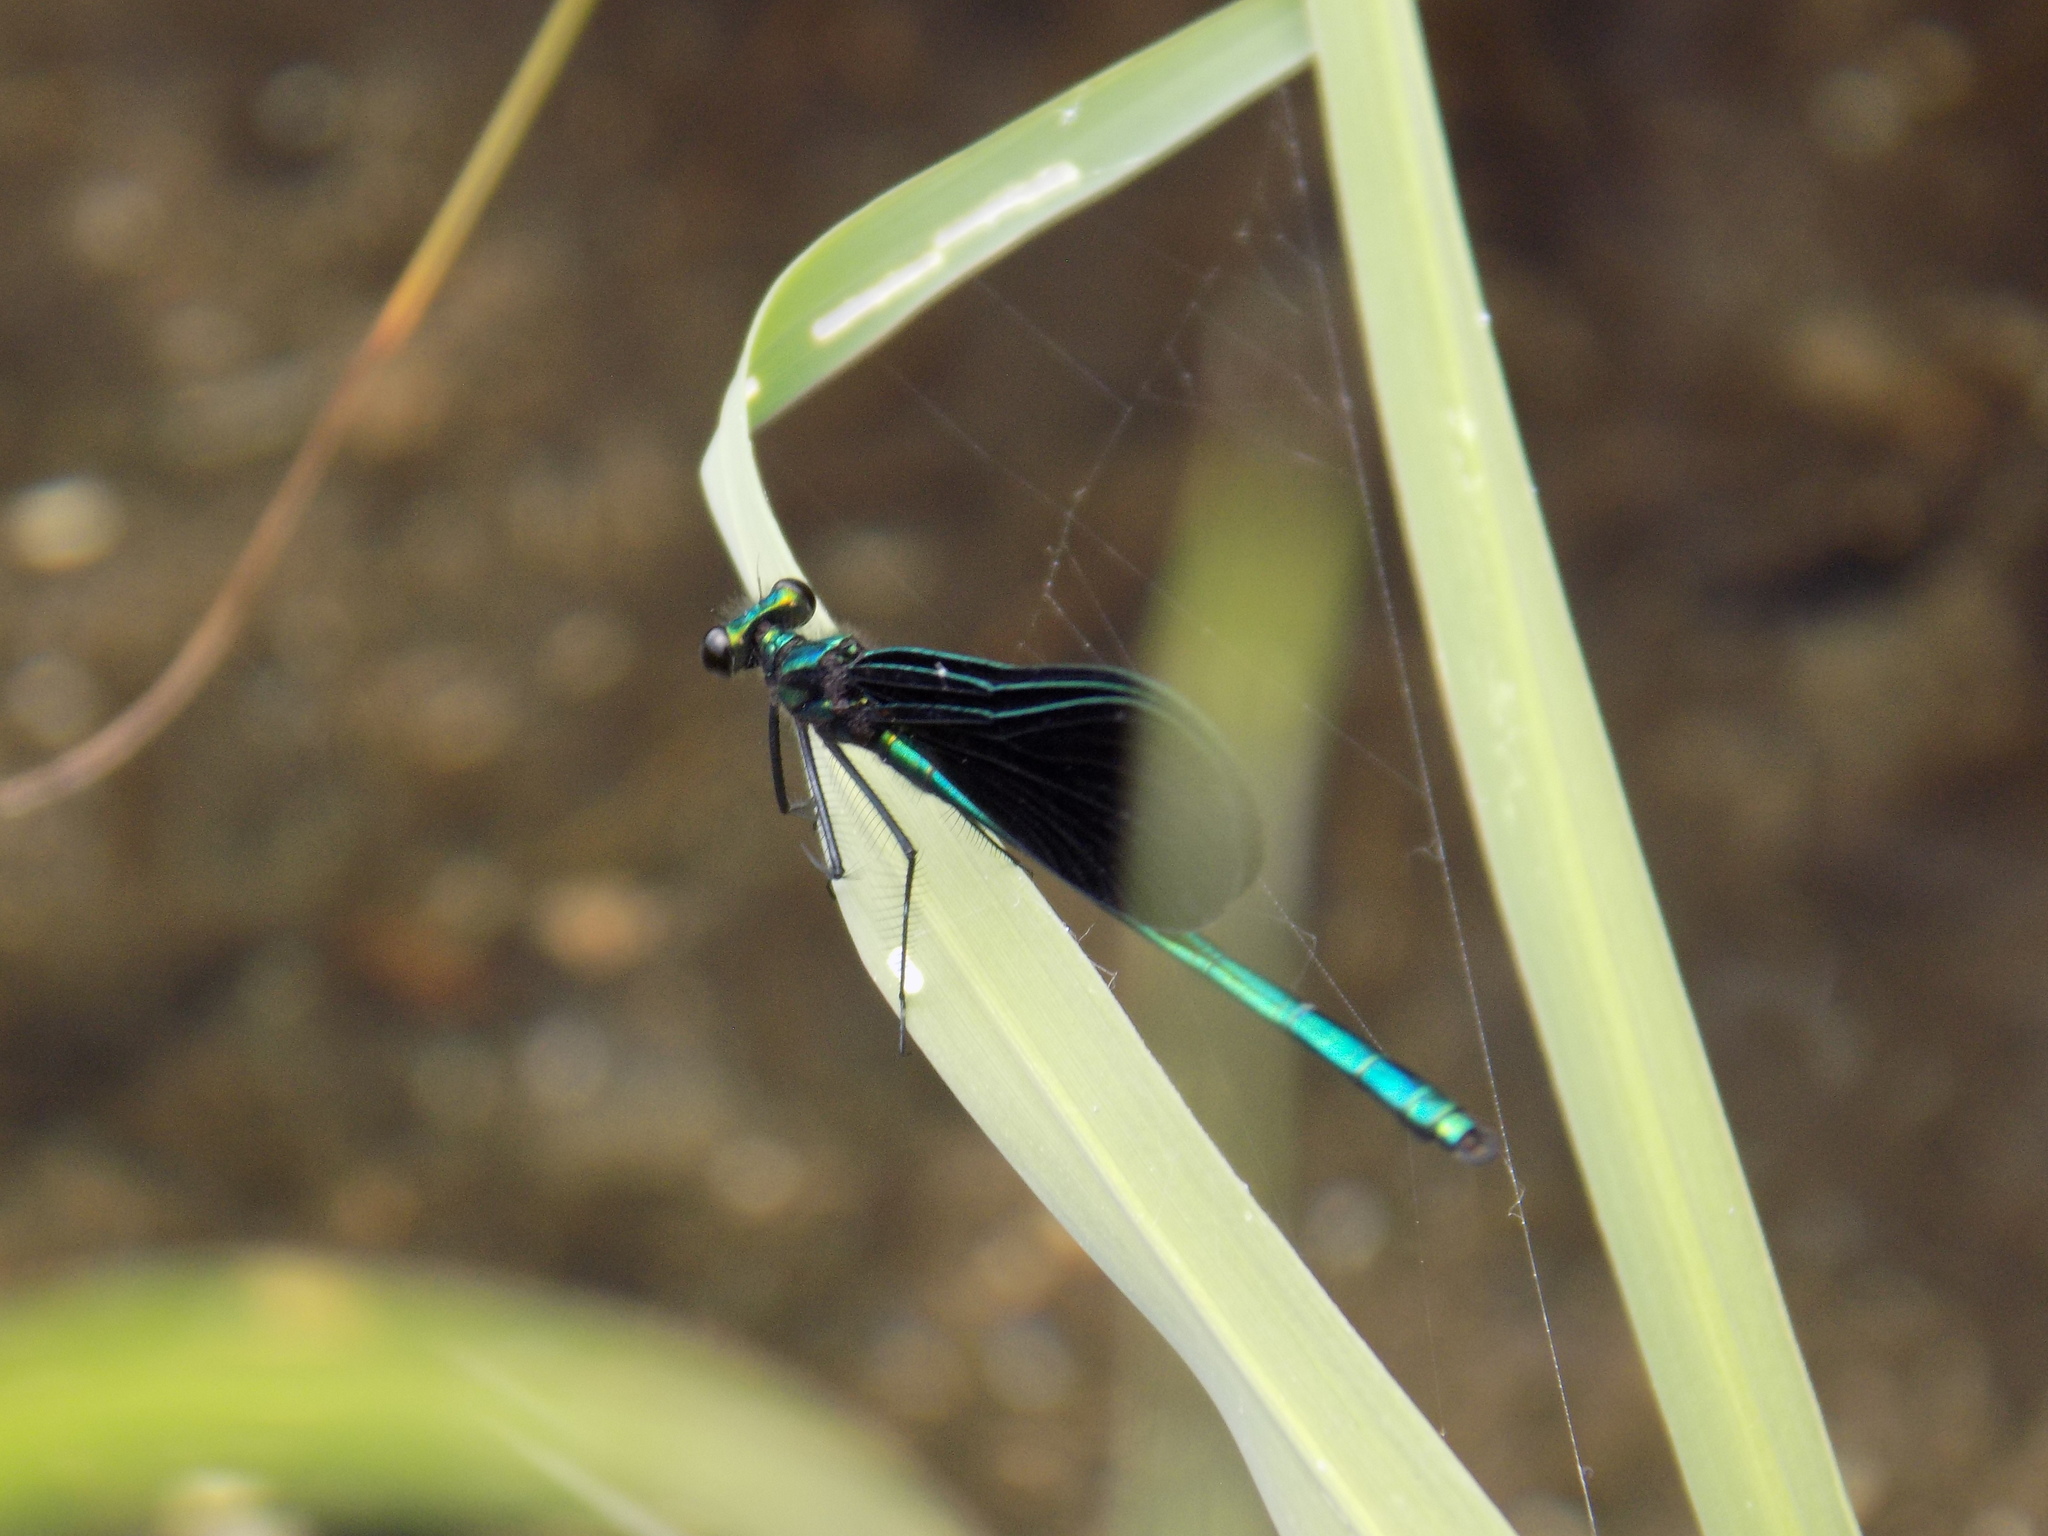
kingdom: Animalia
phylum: Arthropoda
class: Insecta
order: Odonata
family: Calopterygidae
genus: Calopteryx
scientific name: Calopteryx maculata
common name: Ebony jewelwing
